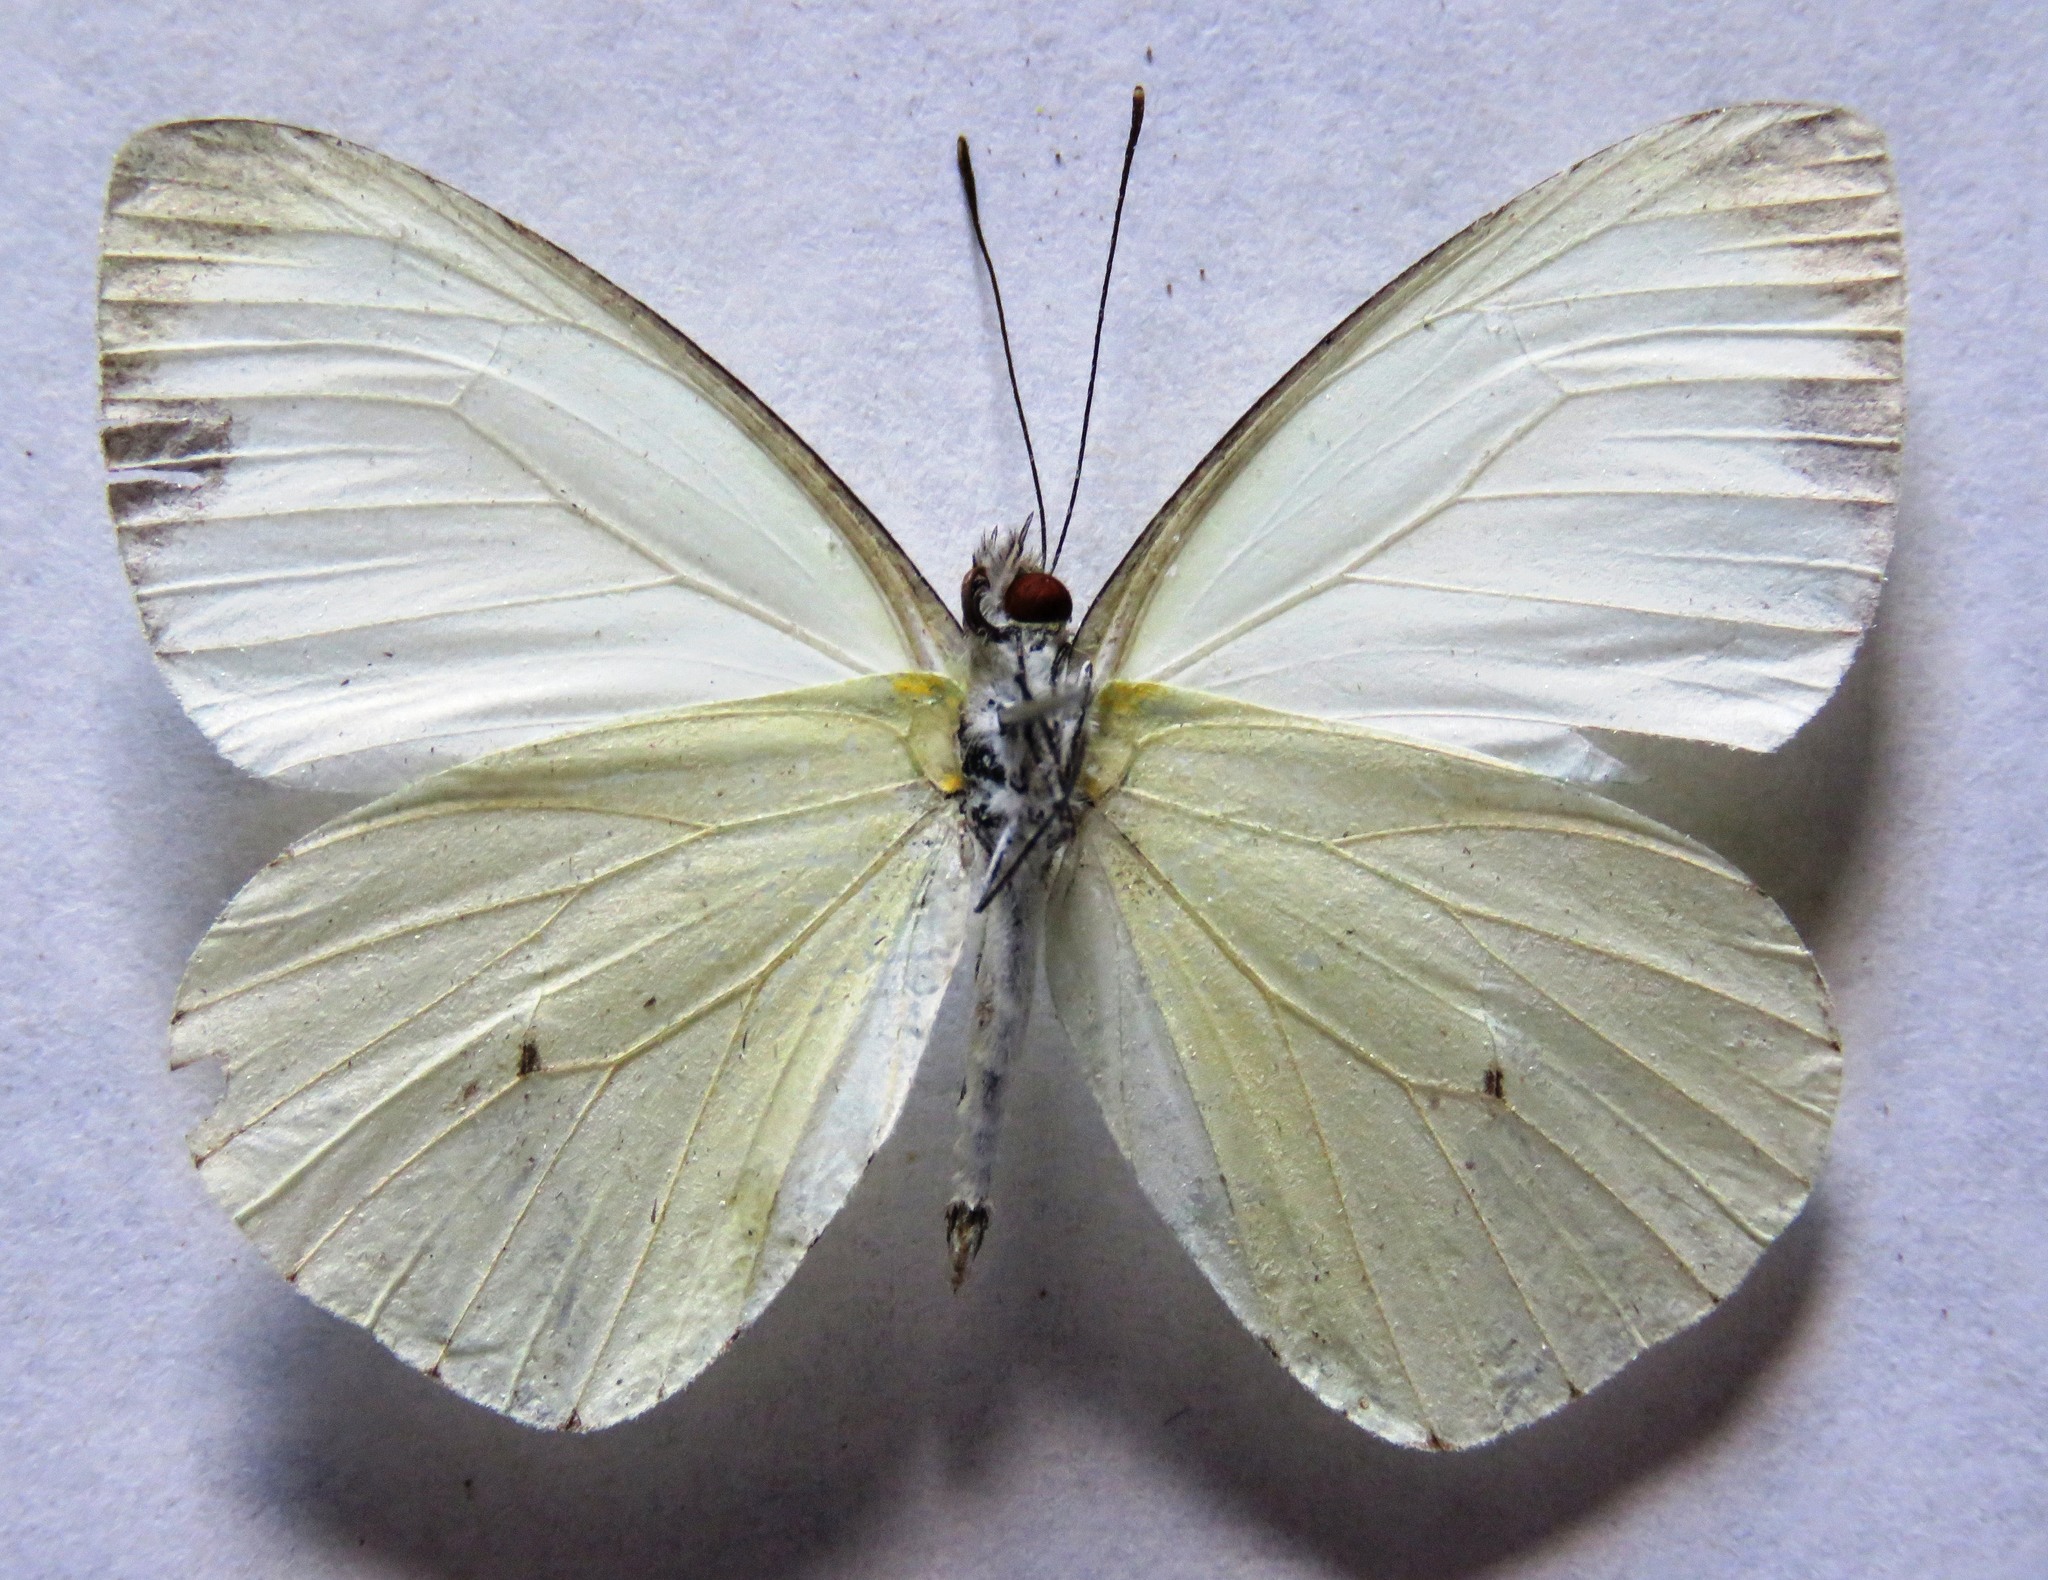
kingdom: Animalia
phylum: Arthropoda
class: Insecta
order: Lepidoptera
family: Pieridae
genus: Leptophobia
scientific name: Leptophobia aripa
